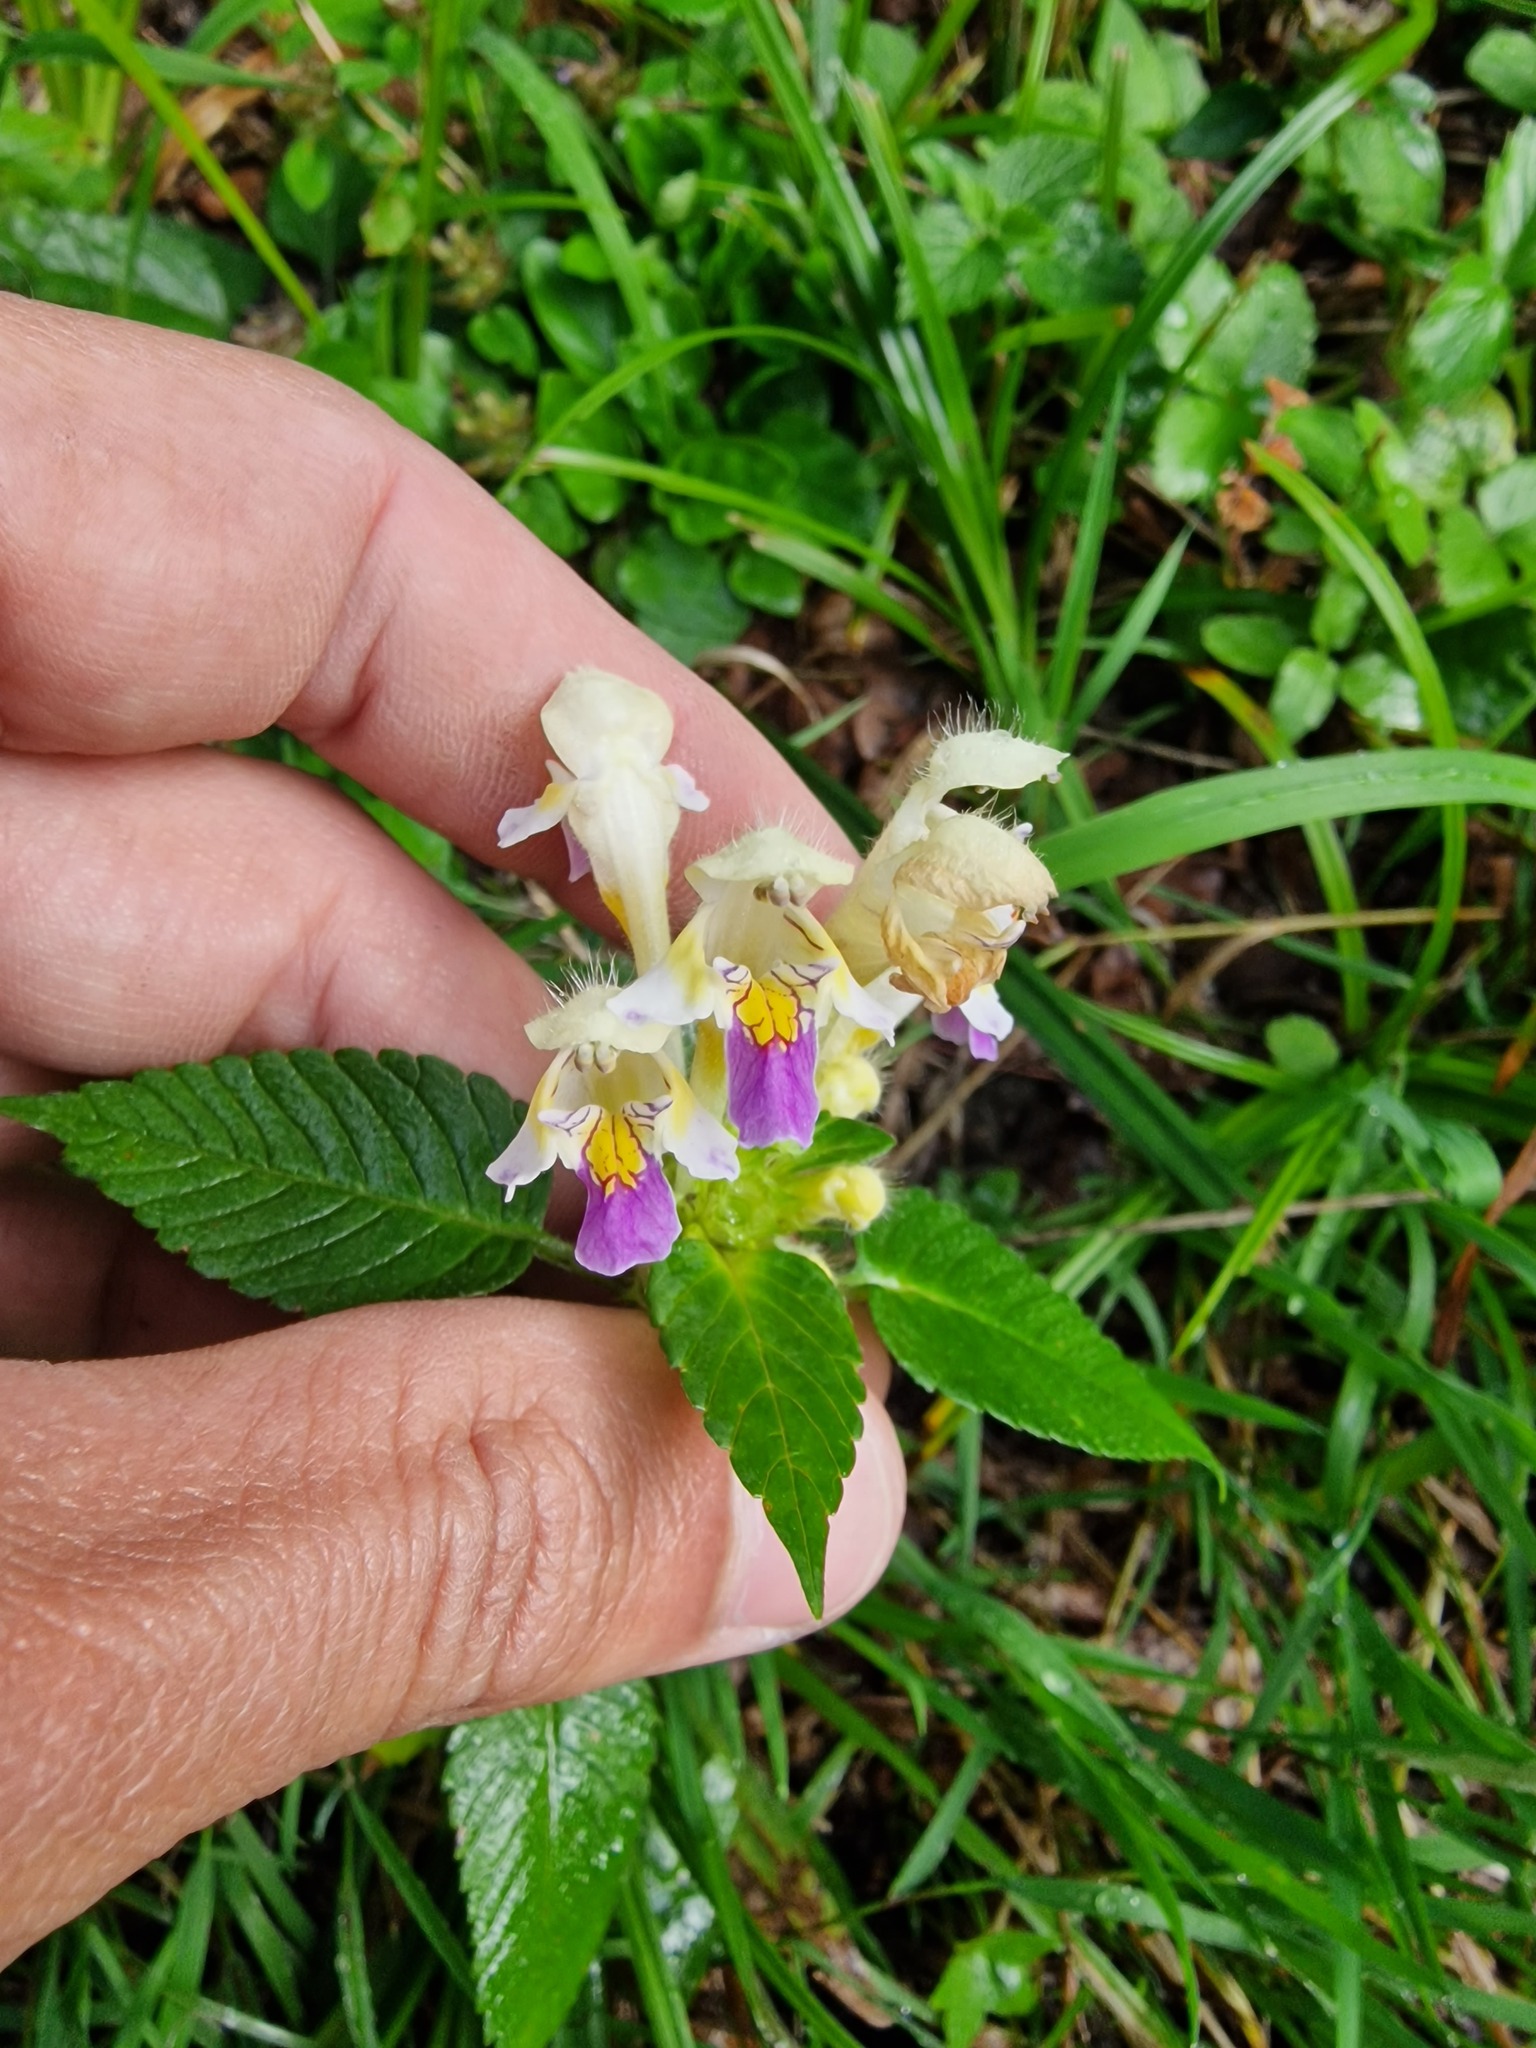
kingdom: Plantae
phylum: Tracheophyta
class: Magnoliopsida
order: Lamiales
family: Lamiaceae
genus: Galeopsis
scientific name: Galeopsis speciosa
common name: Large-flowered hemp-nettle
